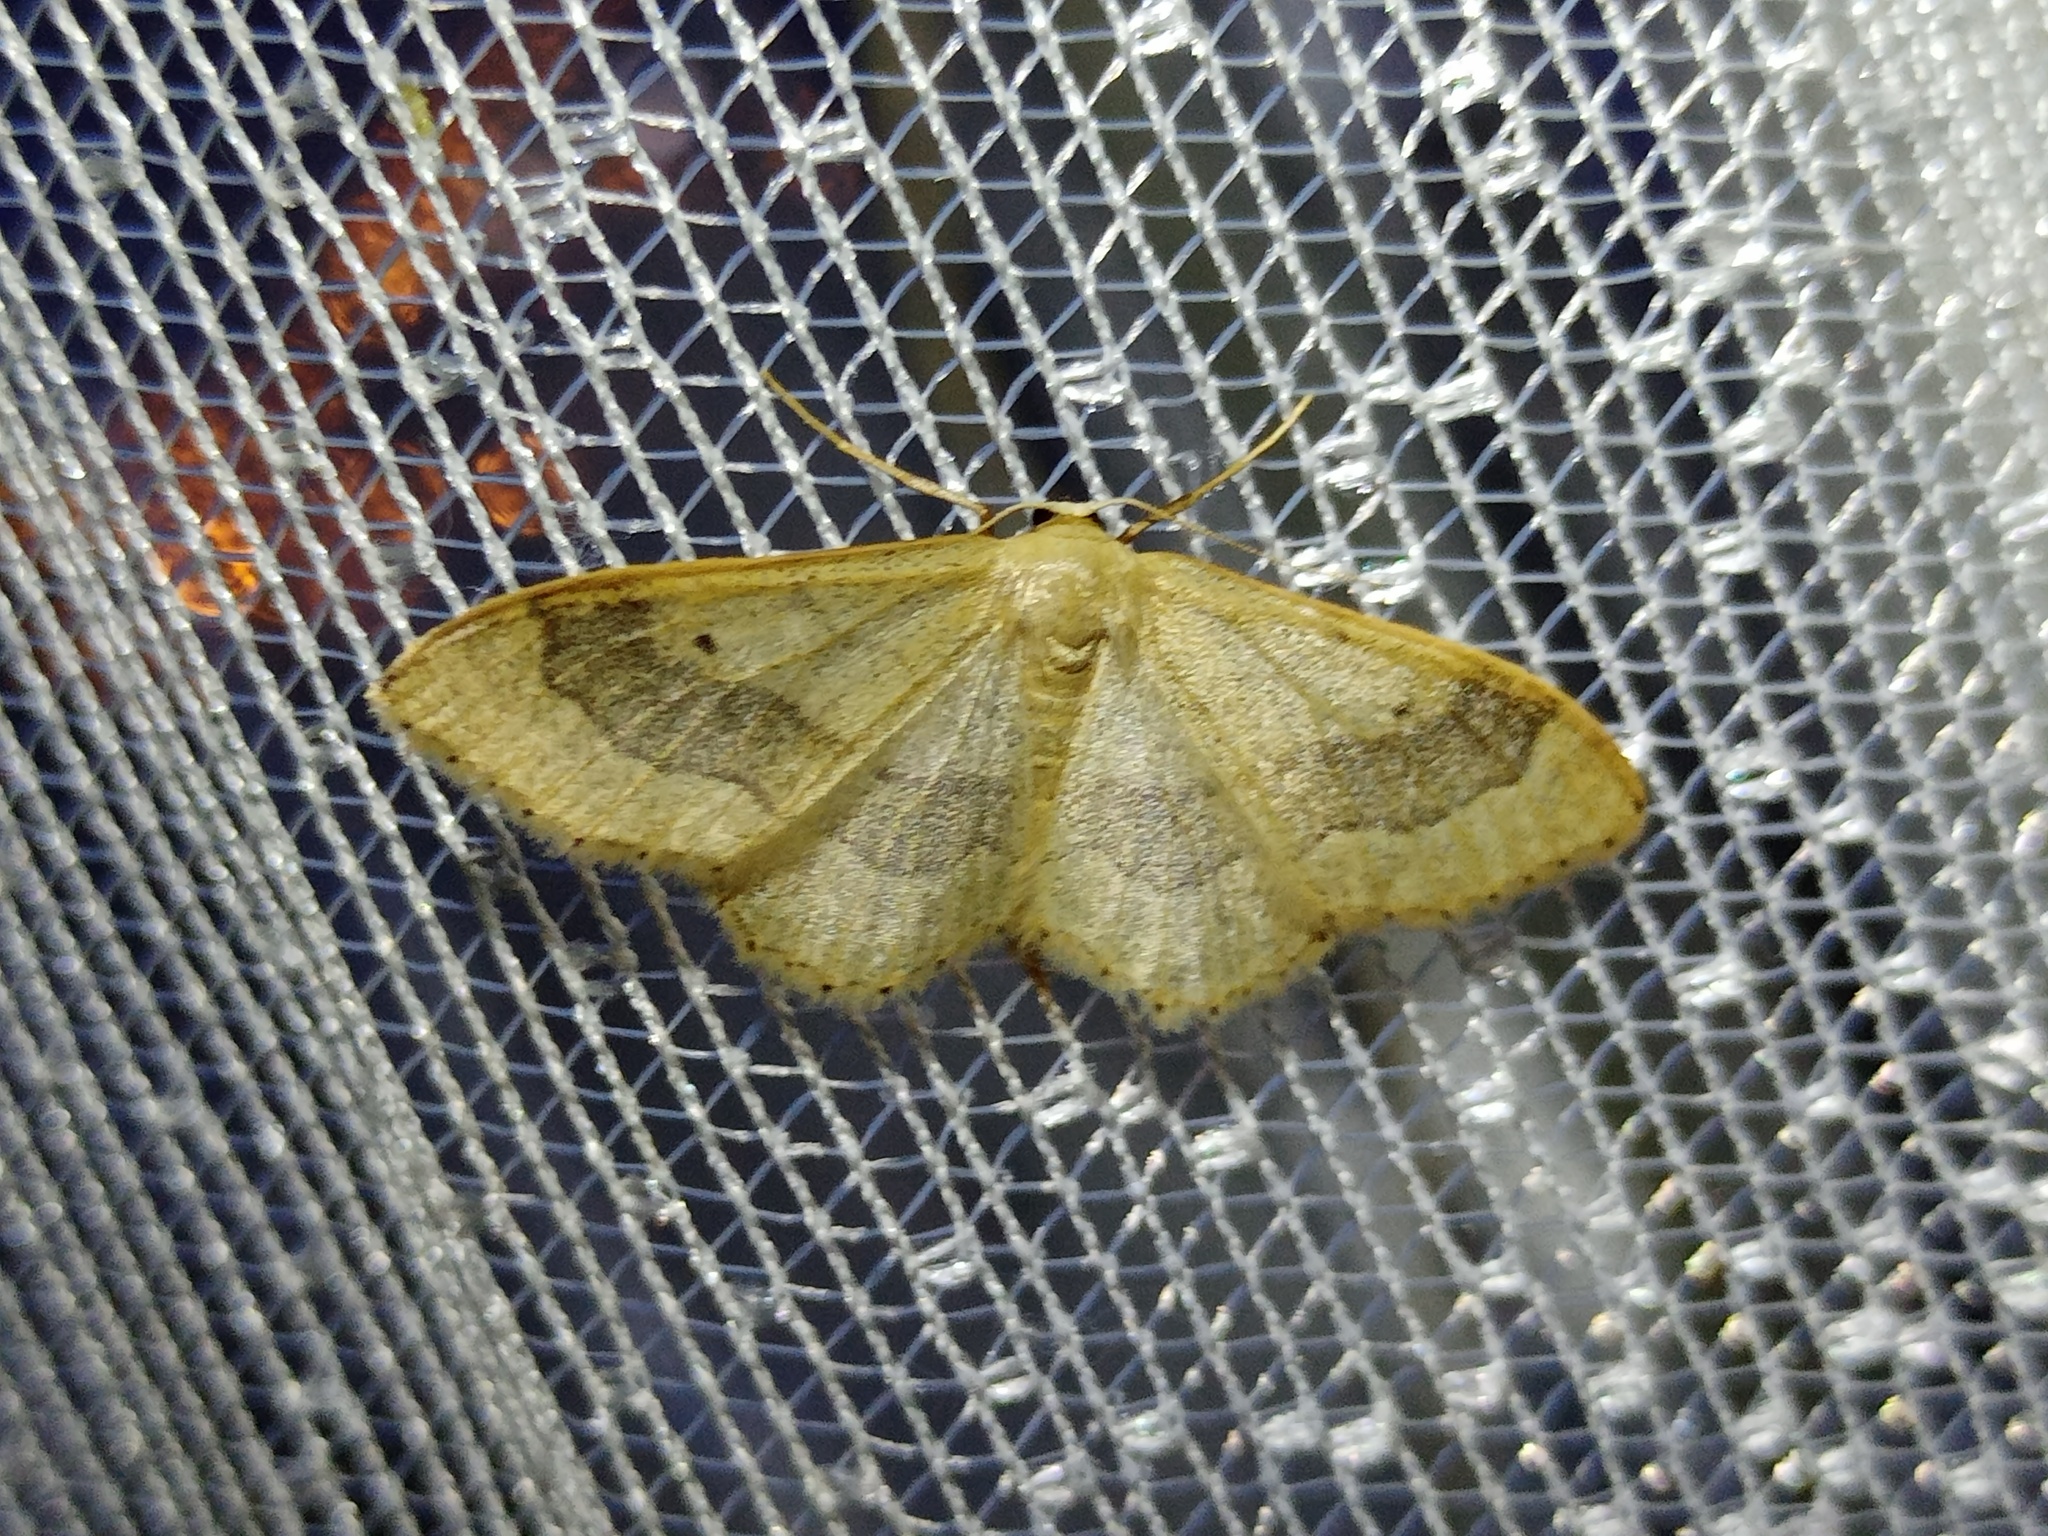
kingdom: Animalia
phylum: Arthropoda
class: Insecta
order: Lepidoptera
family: Geometridae
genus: Idaea
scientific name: Idaea aversata
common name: Riband wave
